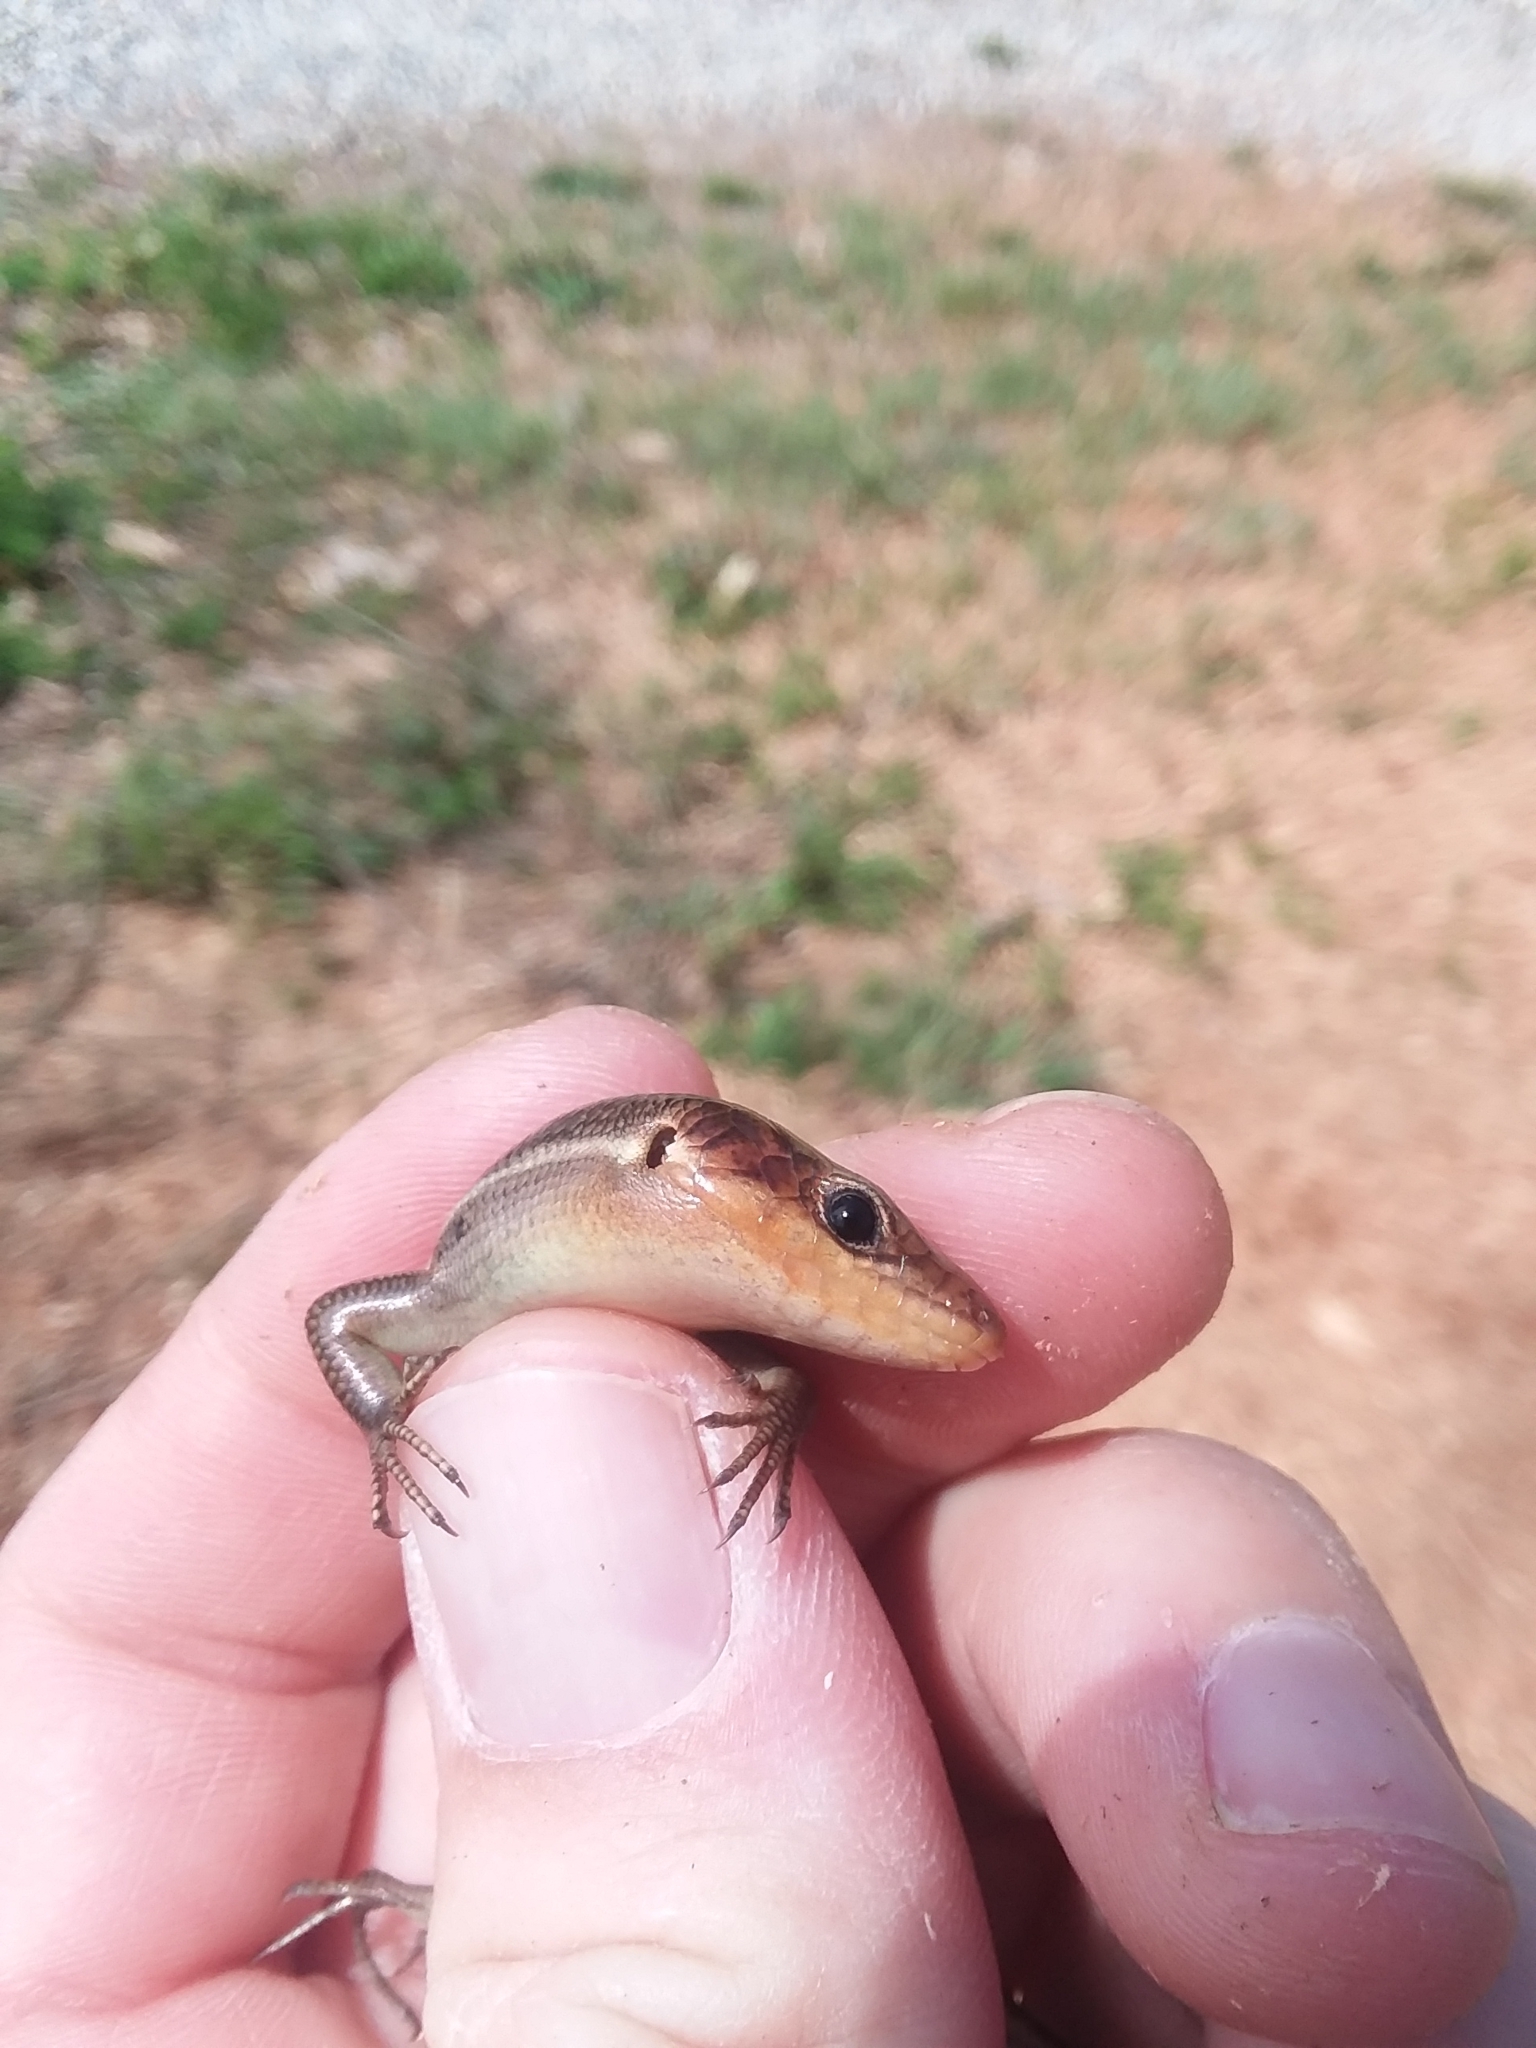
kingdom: Animalia
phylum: Chordata
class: Squamata
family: Scincidae
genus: Plestiodon
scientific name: Plestiodon fasciatus
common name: Five-lined skink
